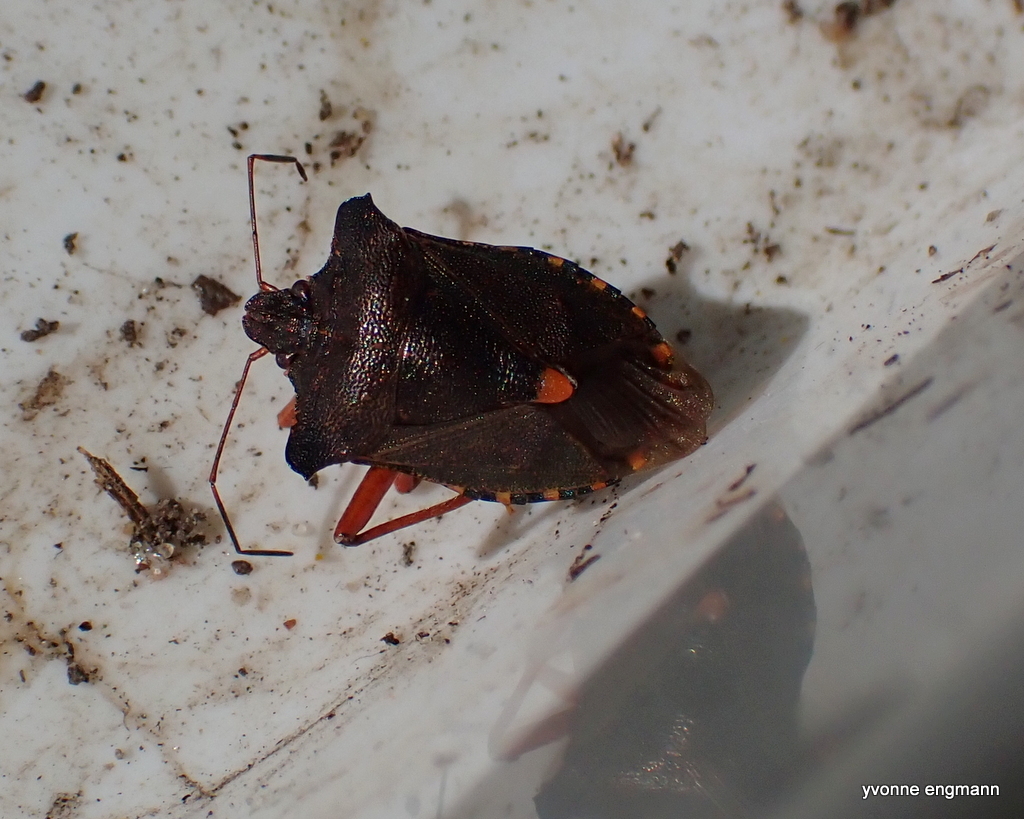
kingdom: Animalia
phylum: Arthropoda
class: Insecta
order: Hemiptera
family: Pentatomidae
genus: Pentatoma
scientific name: Pentatoma rufipes
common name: Forest bug
